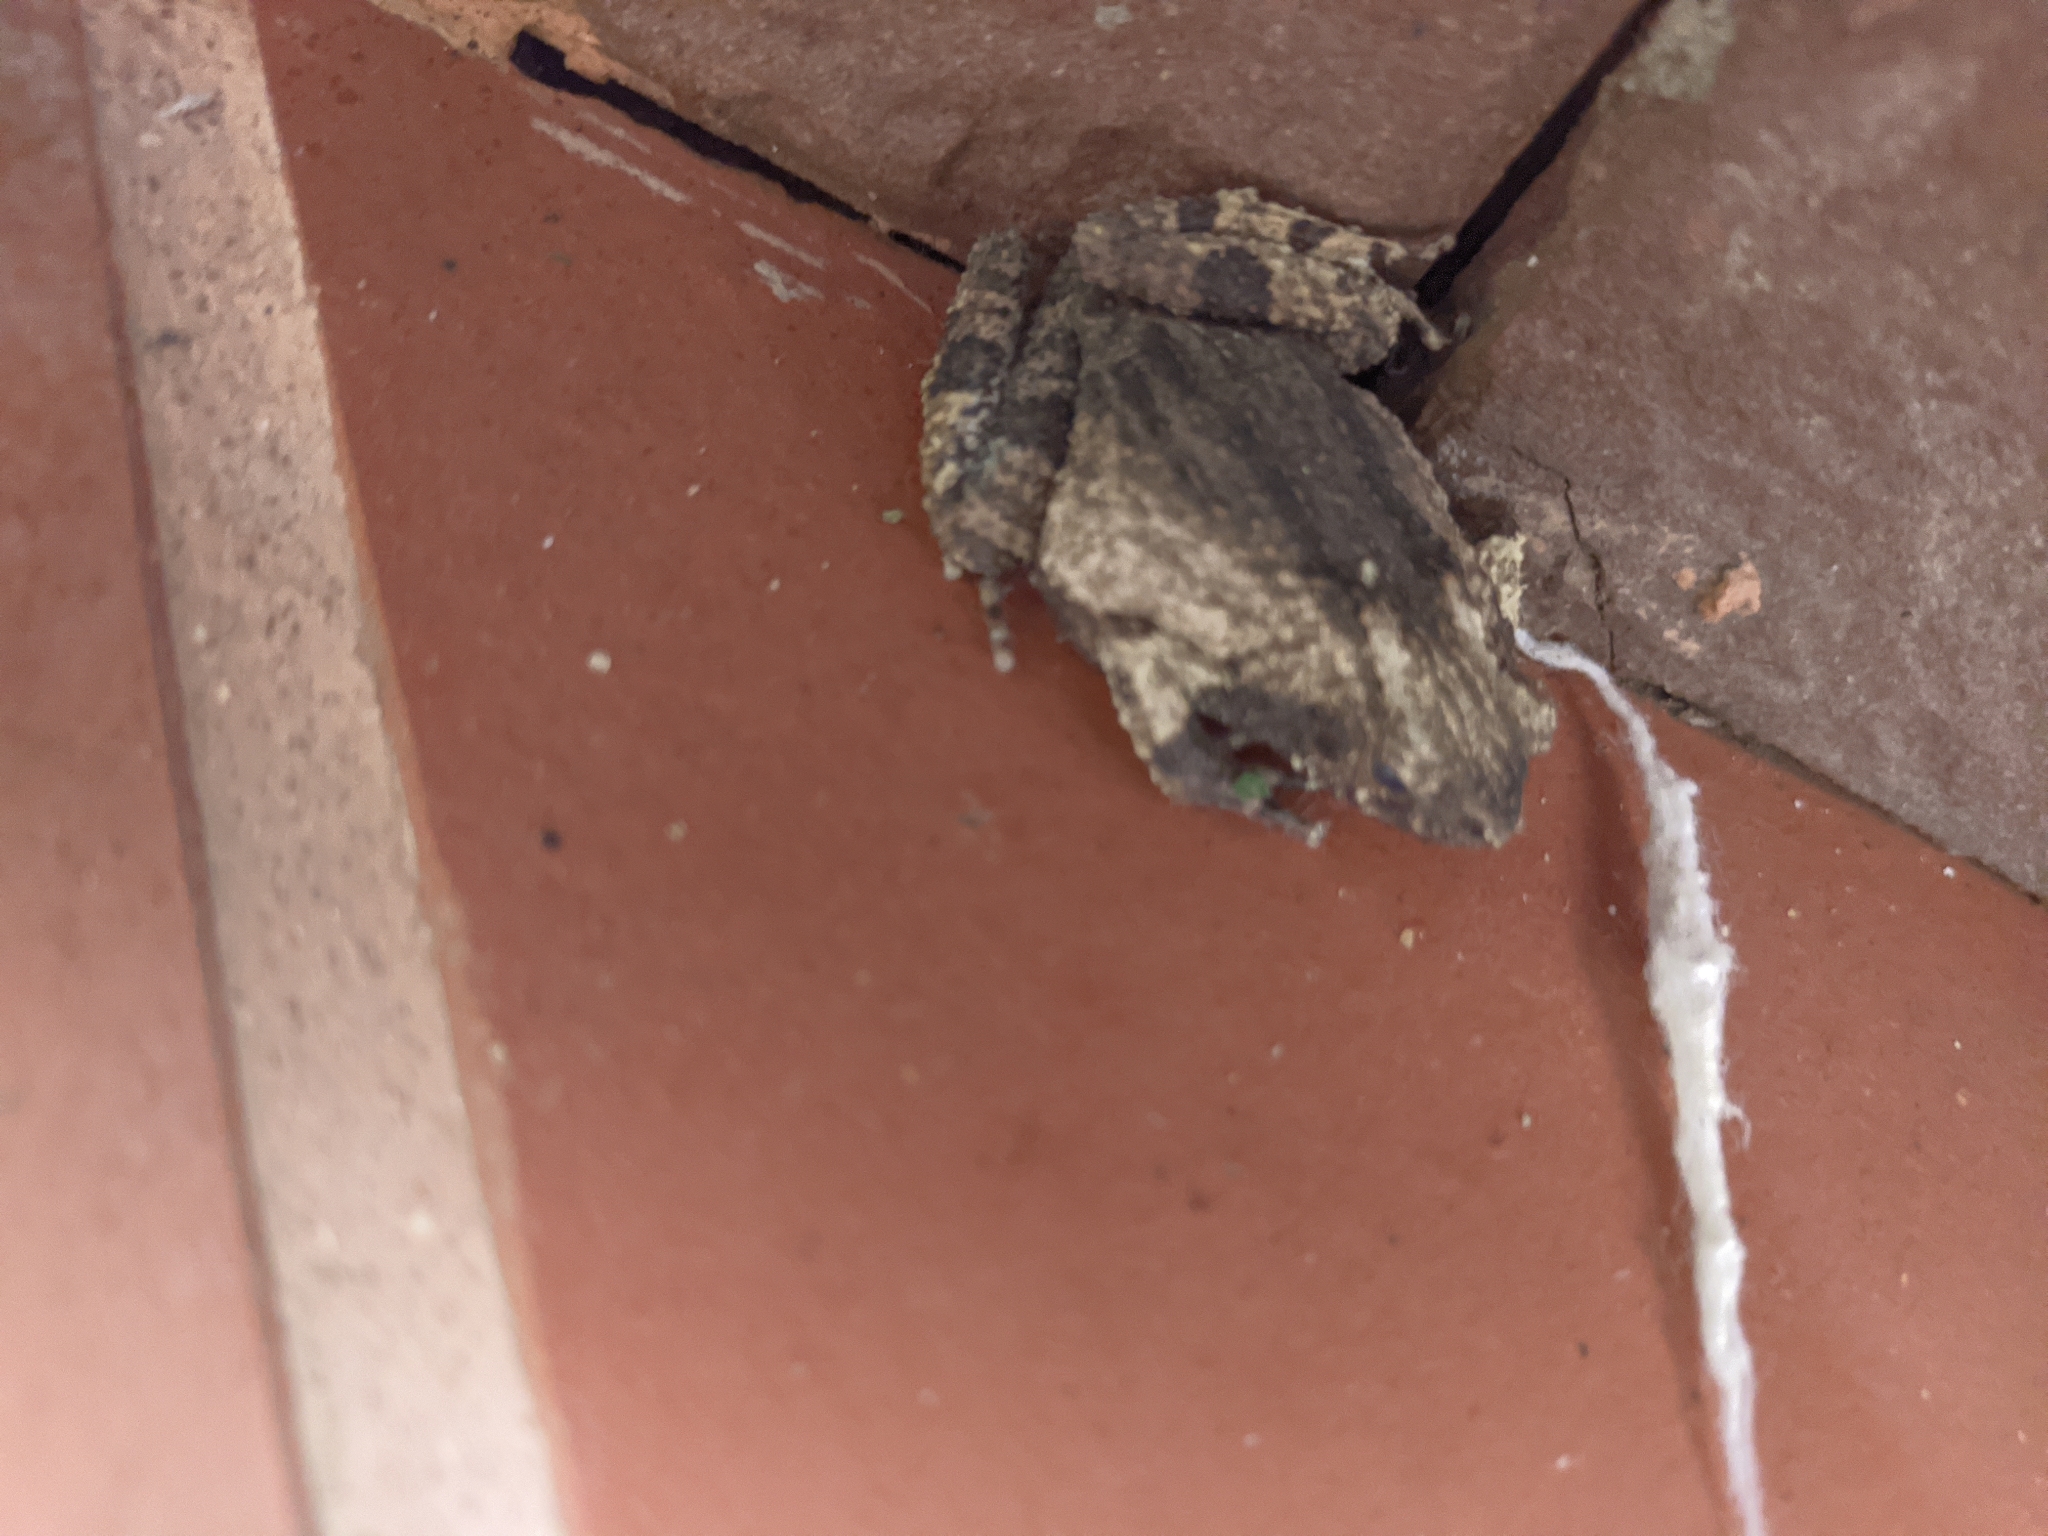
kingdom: Animalia
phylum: Chordata
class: Amphibia
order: Anura
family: Leptodactylidae
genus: Engystomops
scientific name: Engystomops pustulosus
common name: Tungara frog
